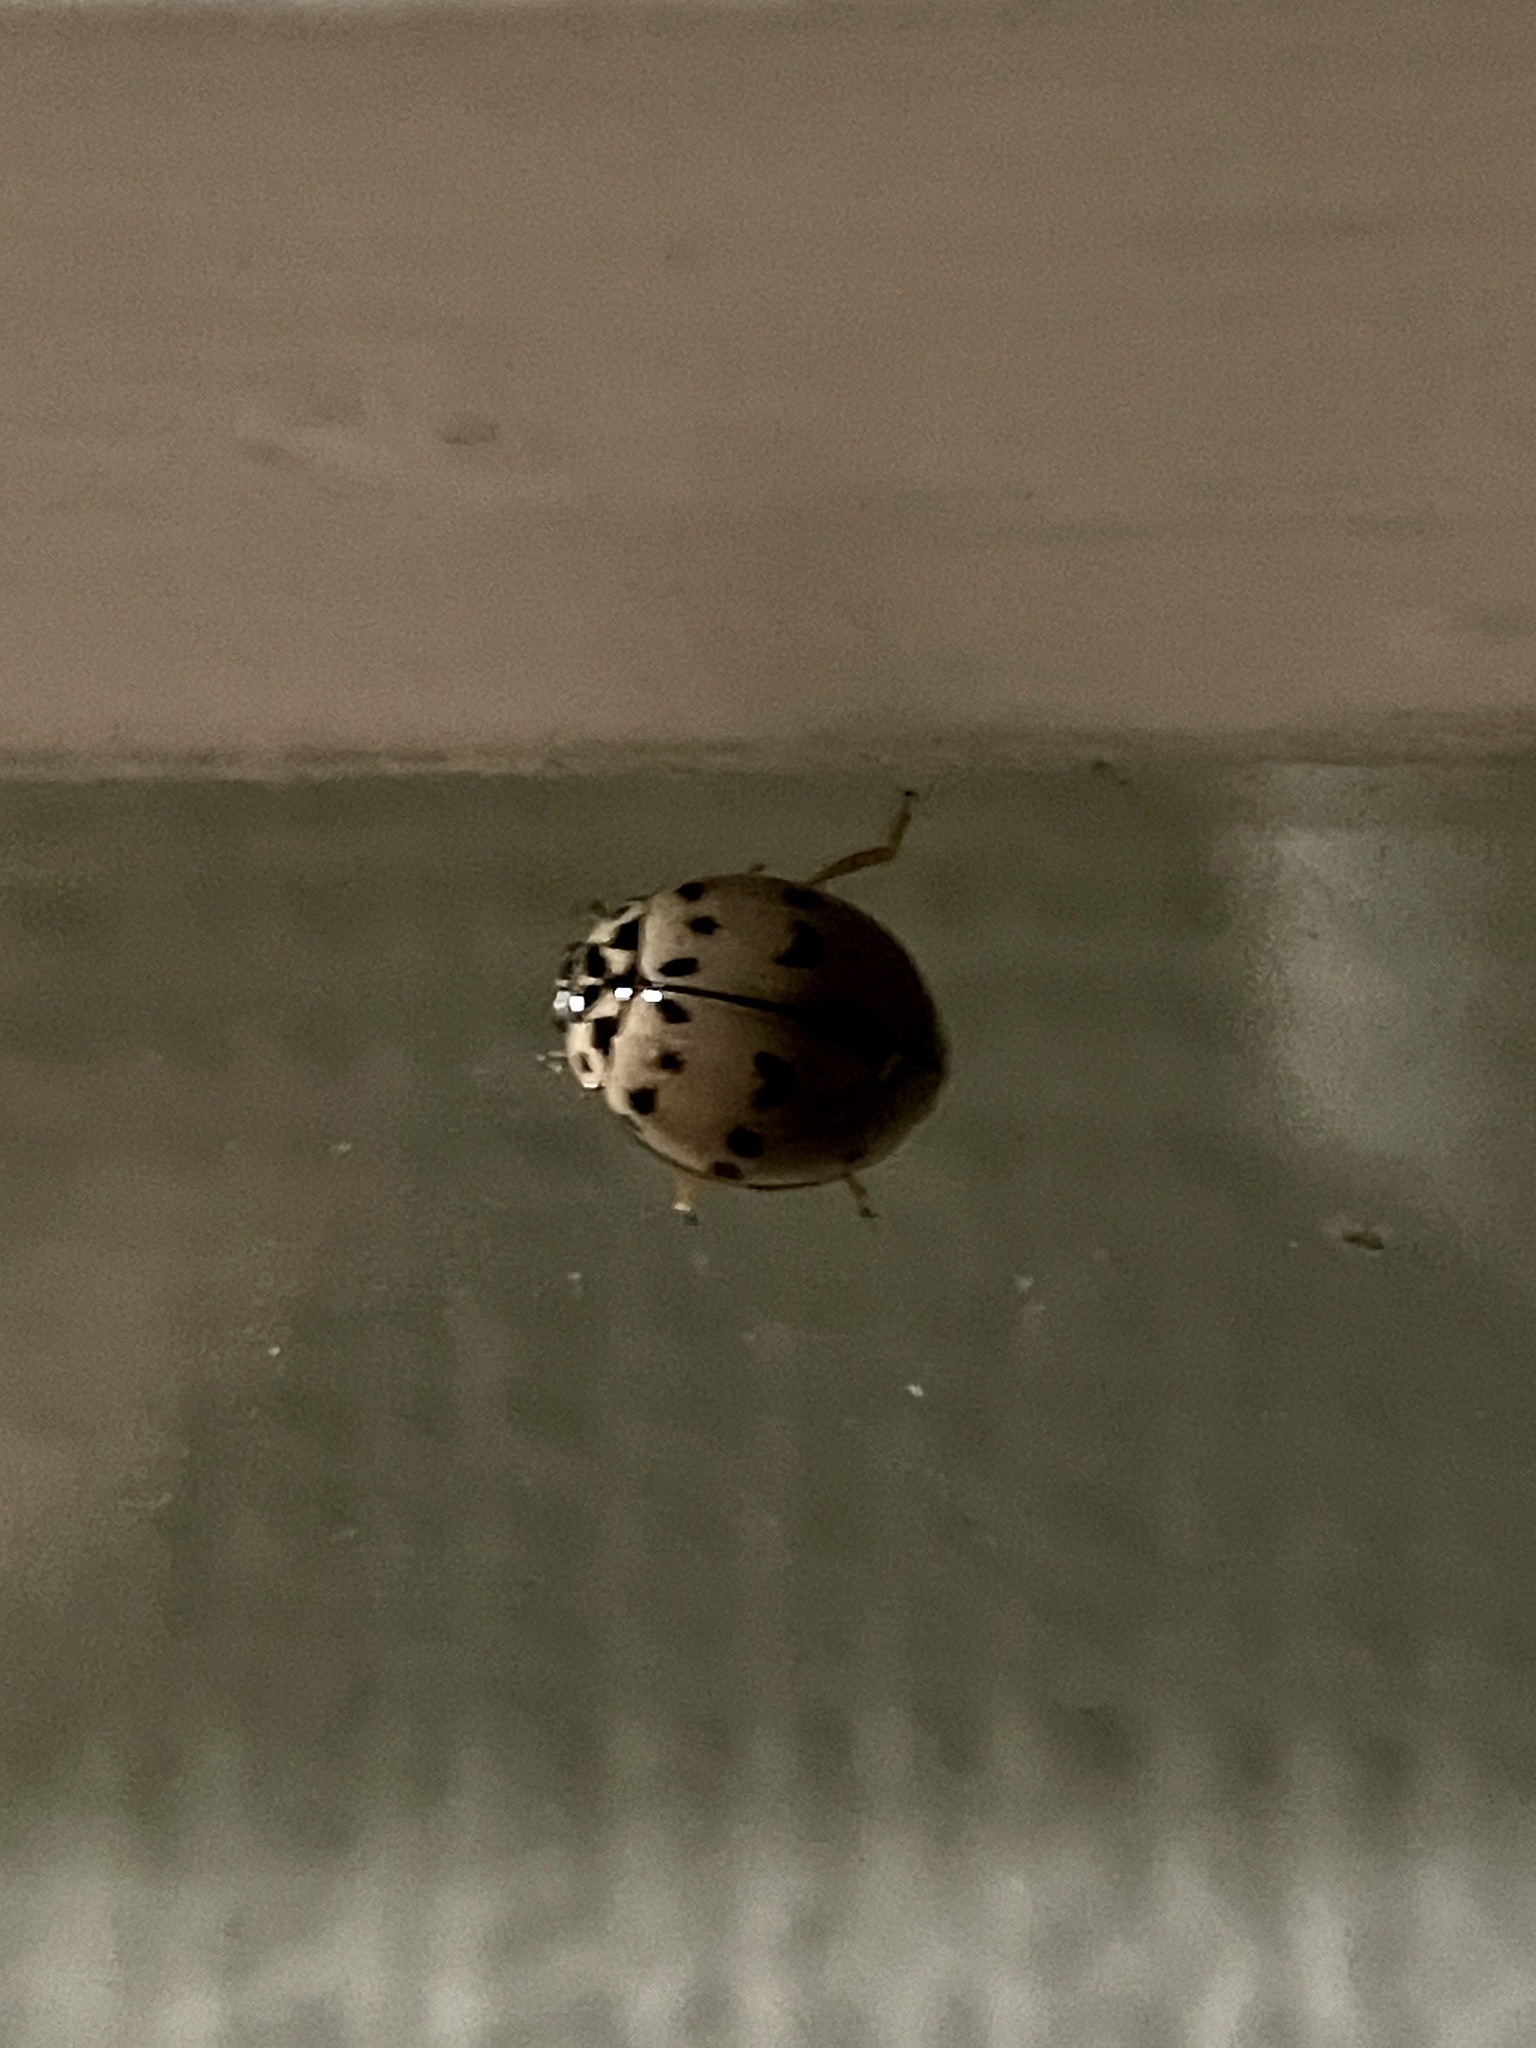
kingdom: Animalia
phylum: Arthropoda
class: Insecta
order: Coleoptera
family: Coccinellidae
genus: Olla
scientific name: Olla v-nigrum
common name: Ashy gray lady beetle
